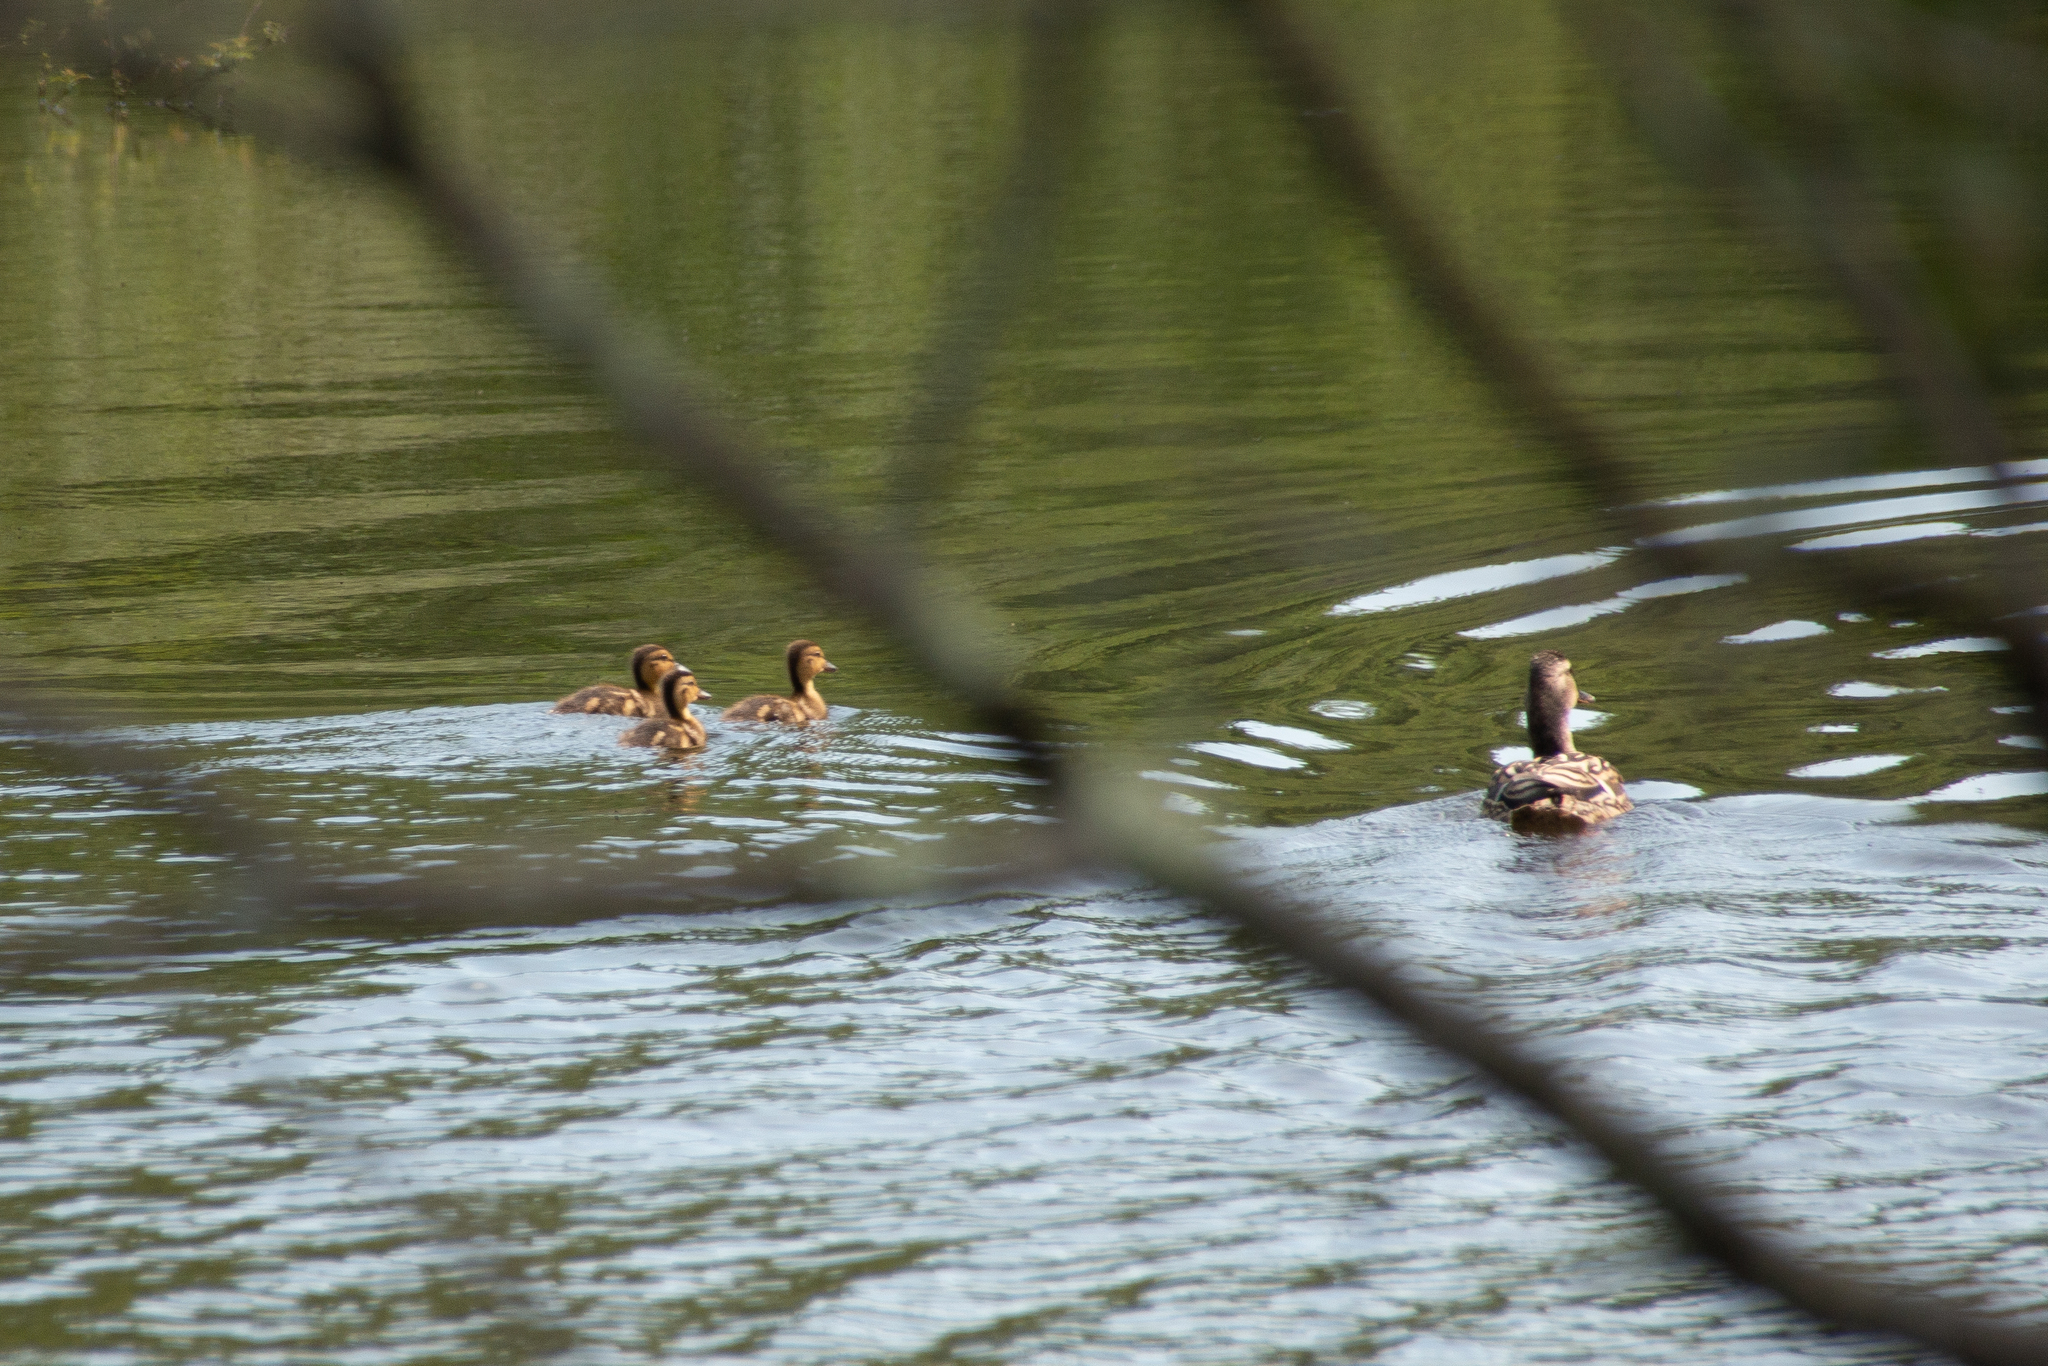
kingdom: Animalia
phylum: Chordata
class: Aves
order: Anseriformes
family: Anatidae
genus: Anas
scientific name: Anas platyrhynchos
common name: Mallard
